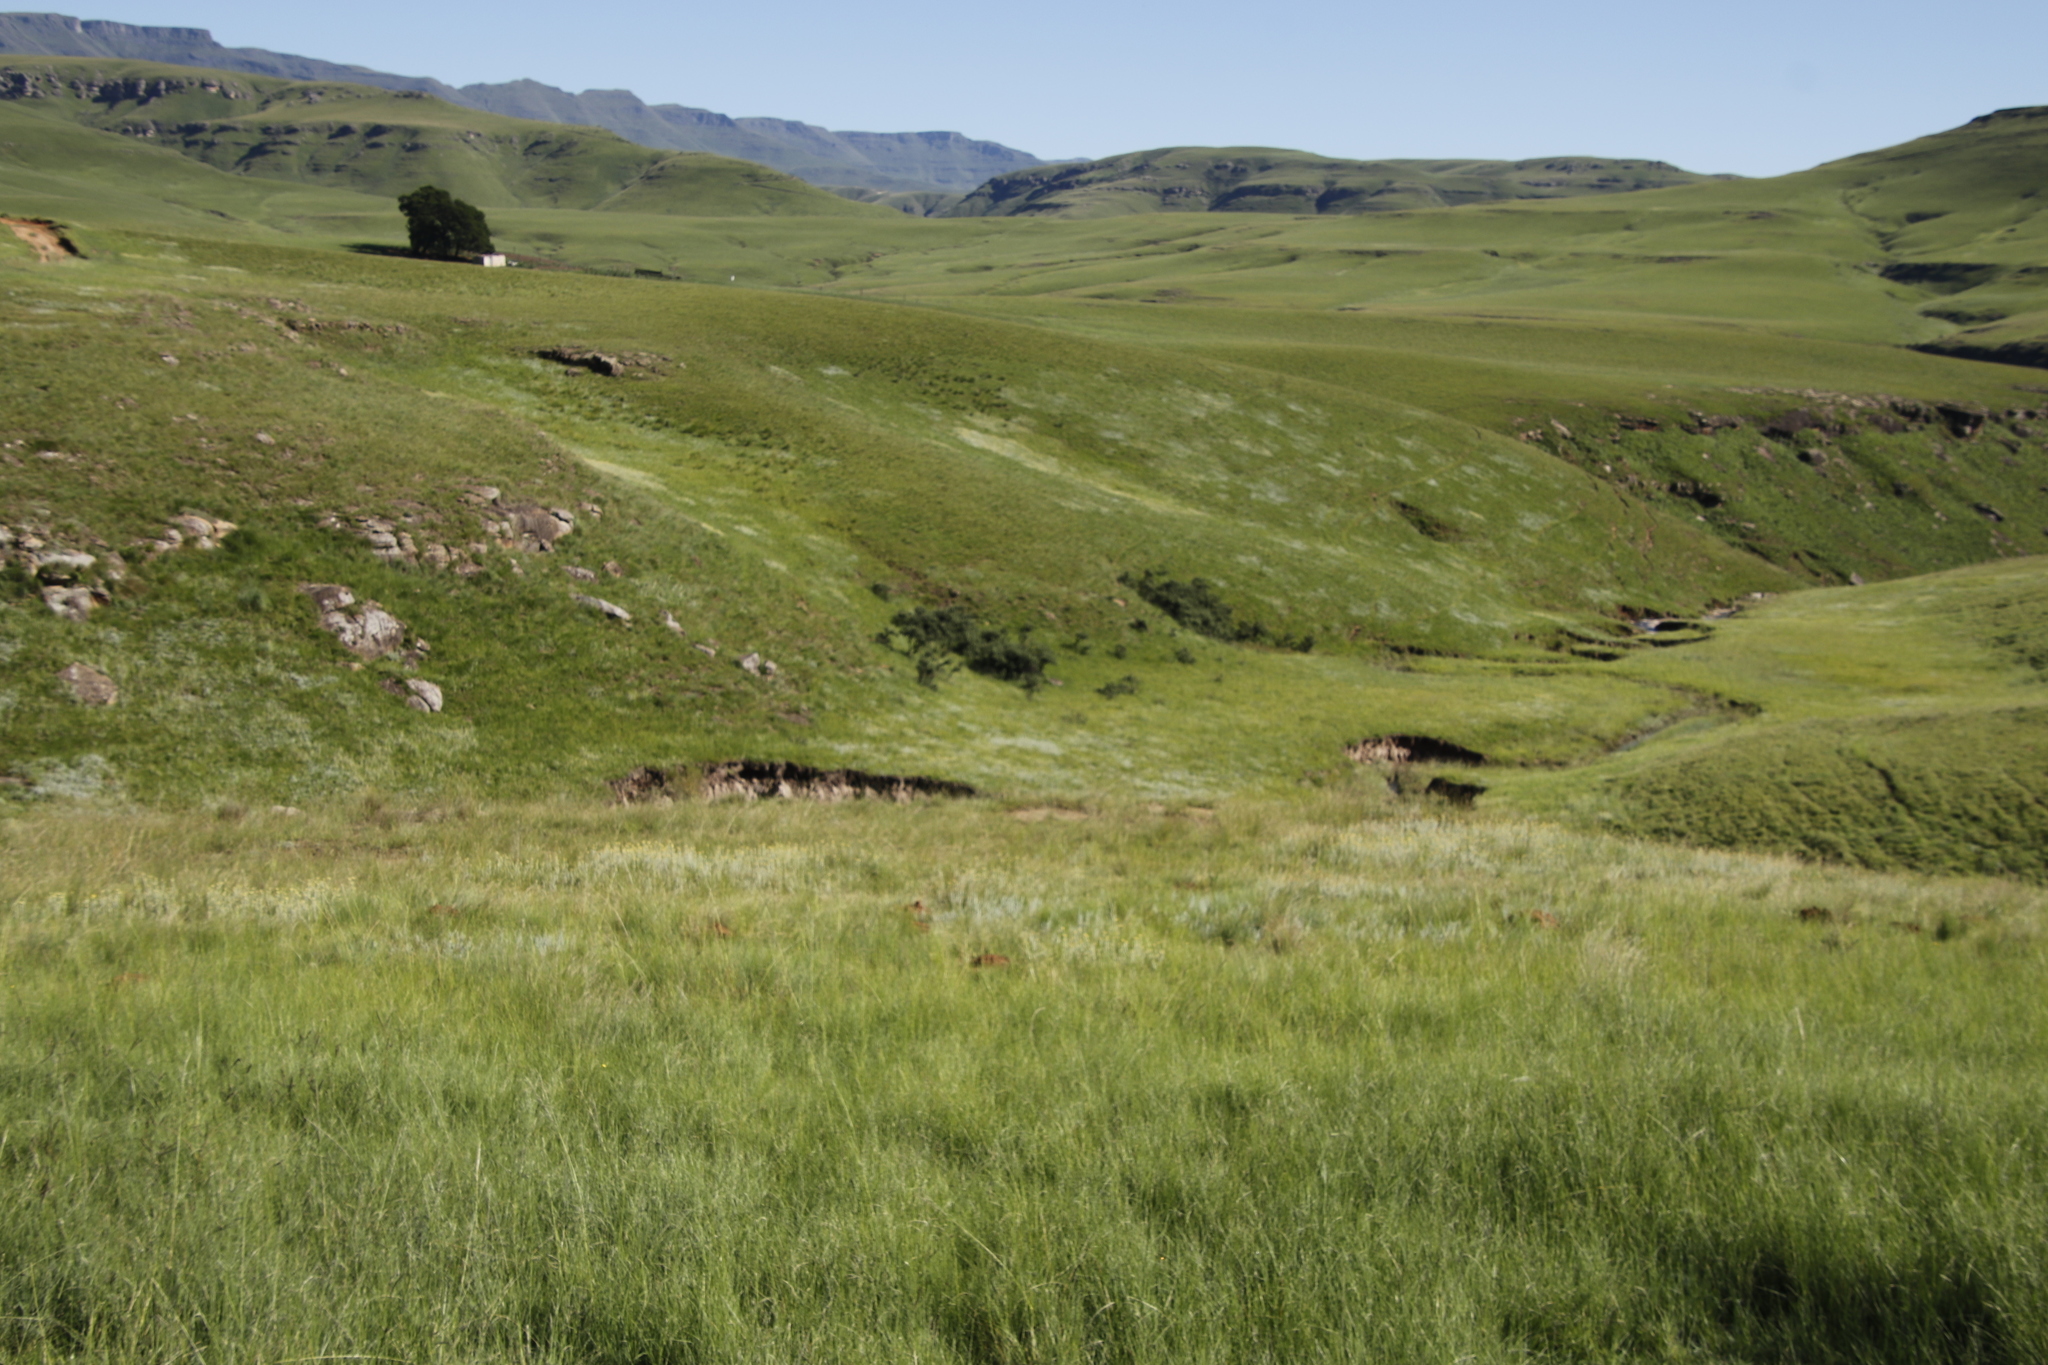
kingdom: Plantae
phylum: Tracheophyta
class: Magnoliopsida
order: Rosales
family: Rosaceae
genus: Leucosidea
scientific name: Leucosidea sericea
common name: Oldwood
